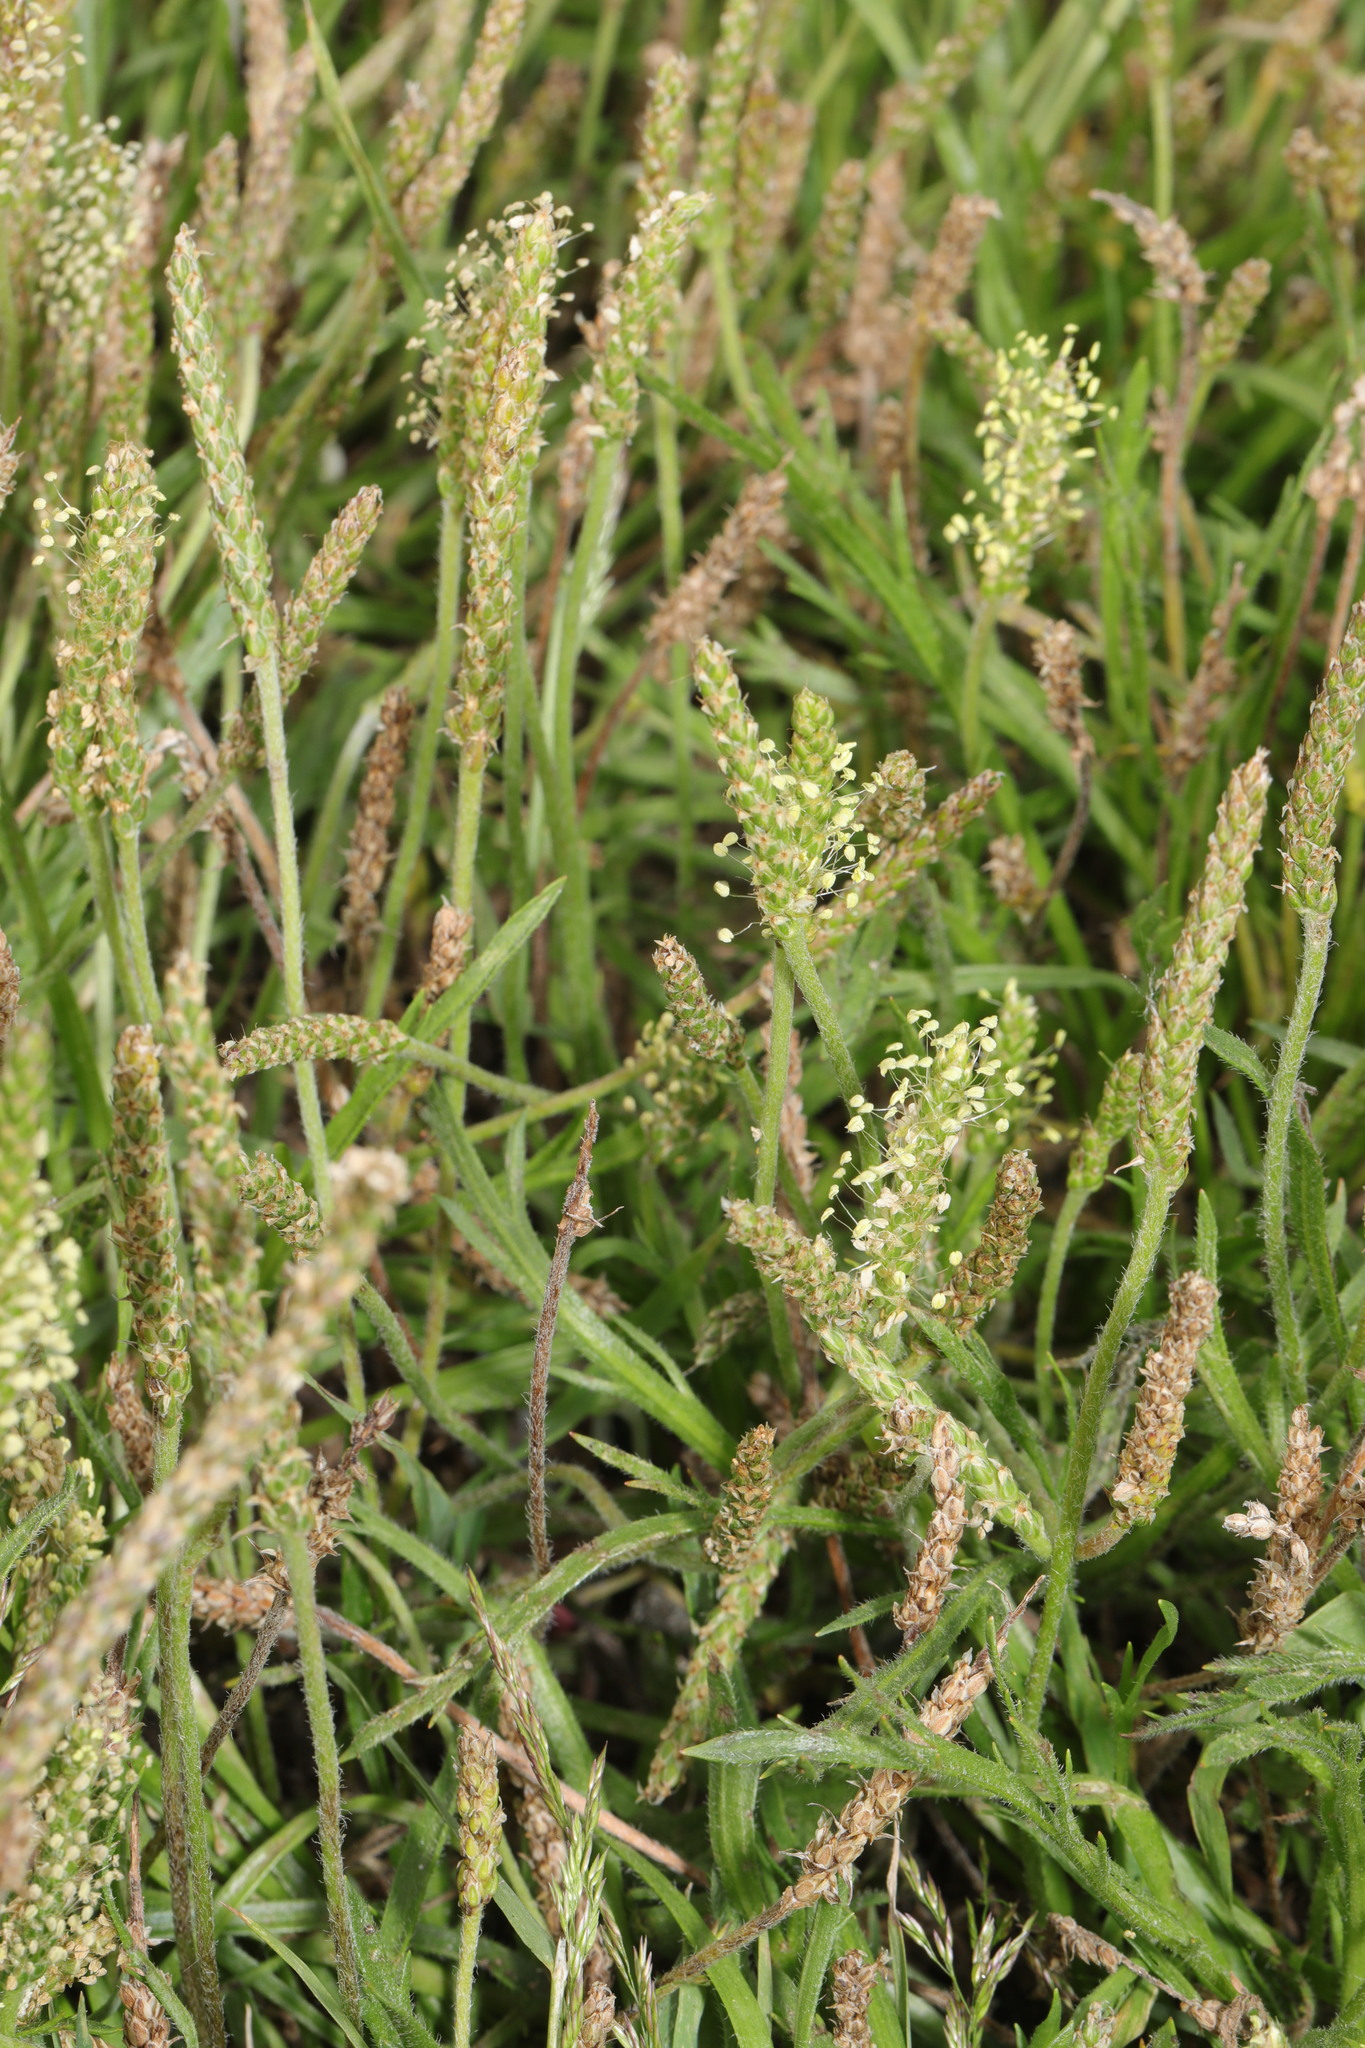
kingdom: Plantae
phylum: Tracheophyta
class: Magnoliopsida
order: Lamiales
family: Plantaginaceae
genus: Plantago
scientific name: Plantago coronopus
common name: Buck's-horn plantain
